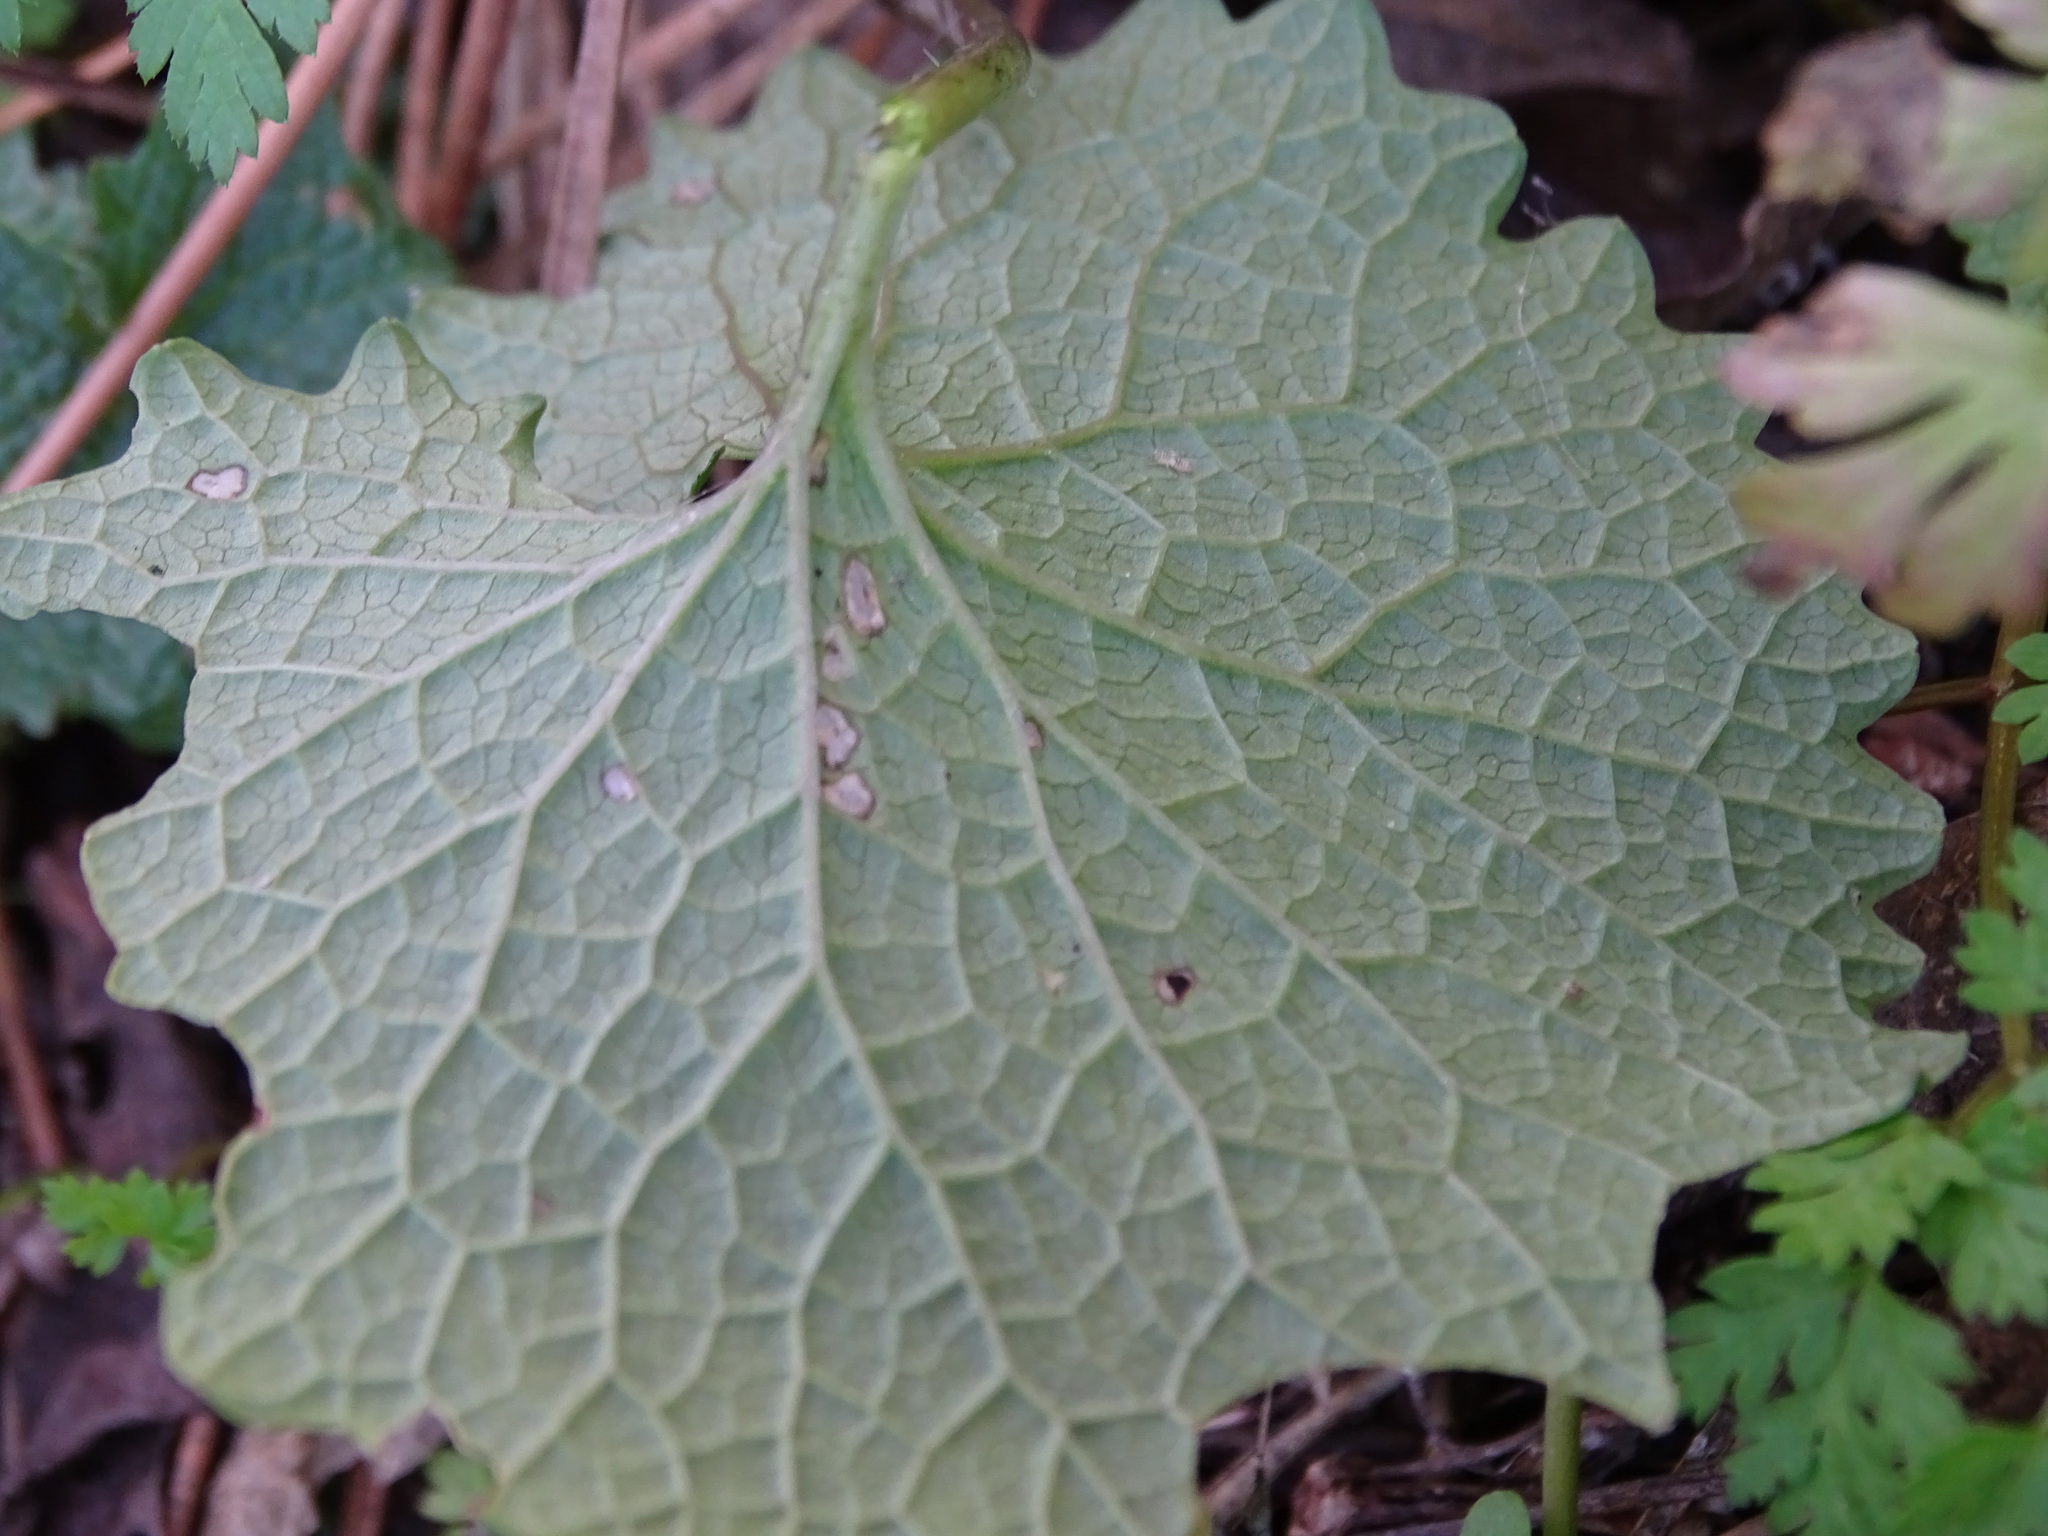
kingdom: Plantae
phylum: Tracheophyta
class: Magnoliopsida
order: Brassicales
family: Brassicaceae
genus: Alliaria
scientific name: Alliaria petiolata
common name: Garlic mustard
